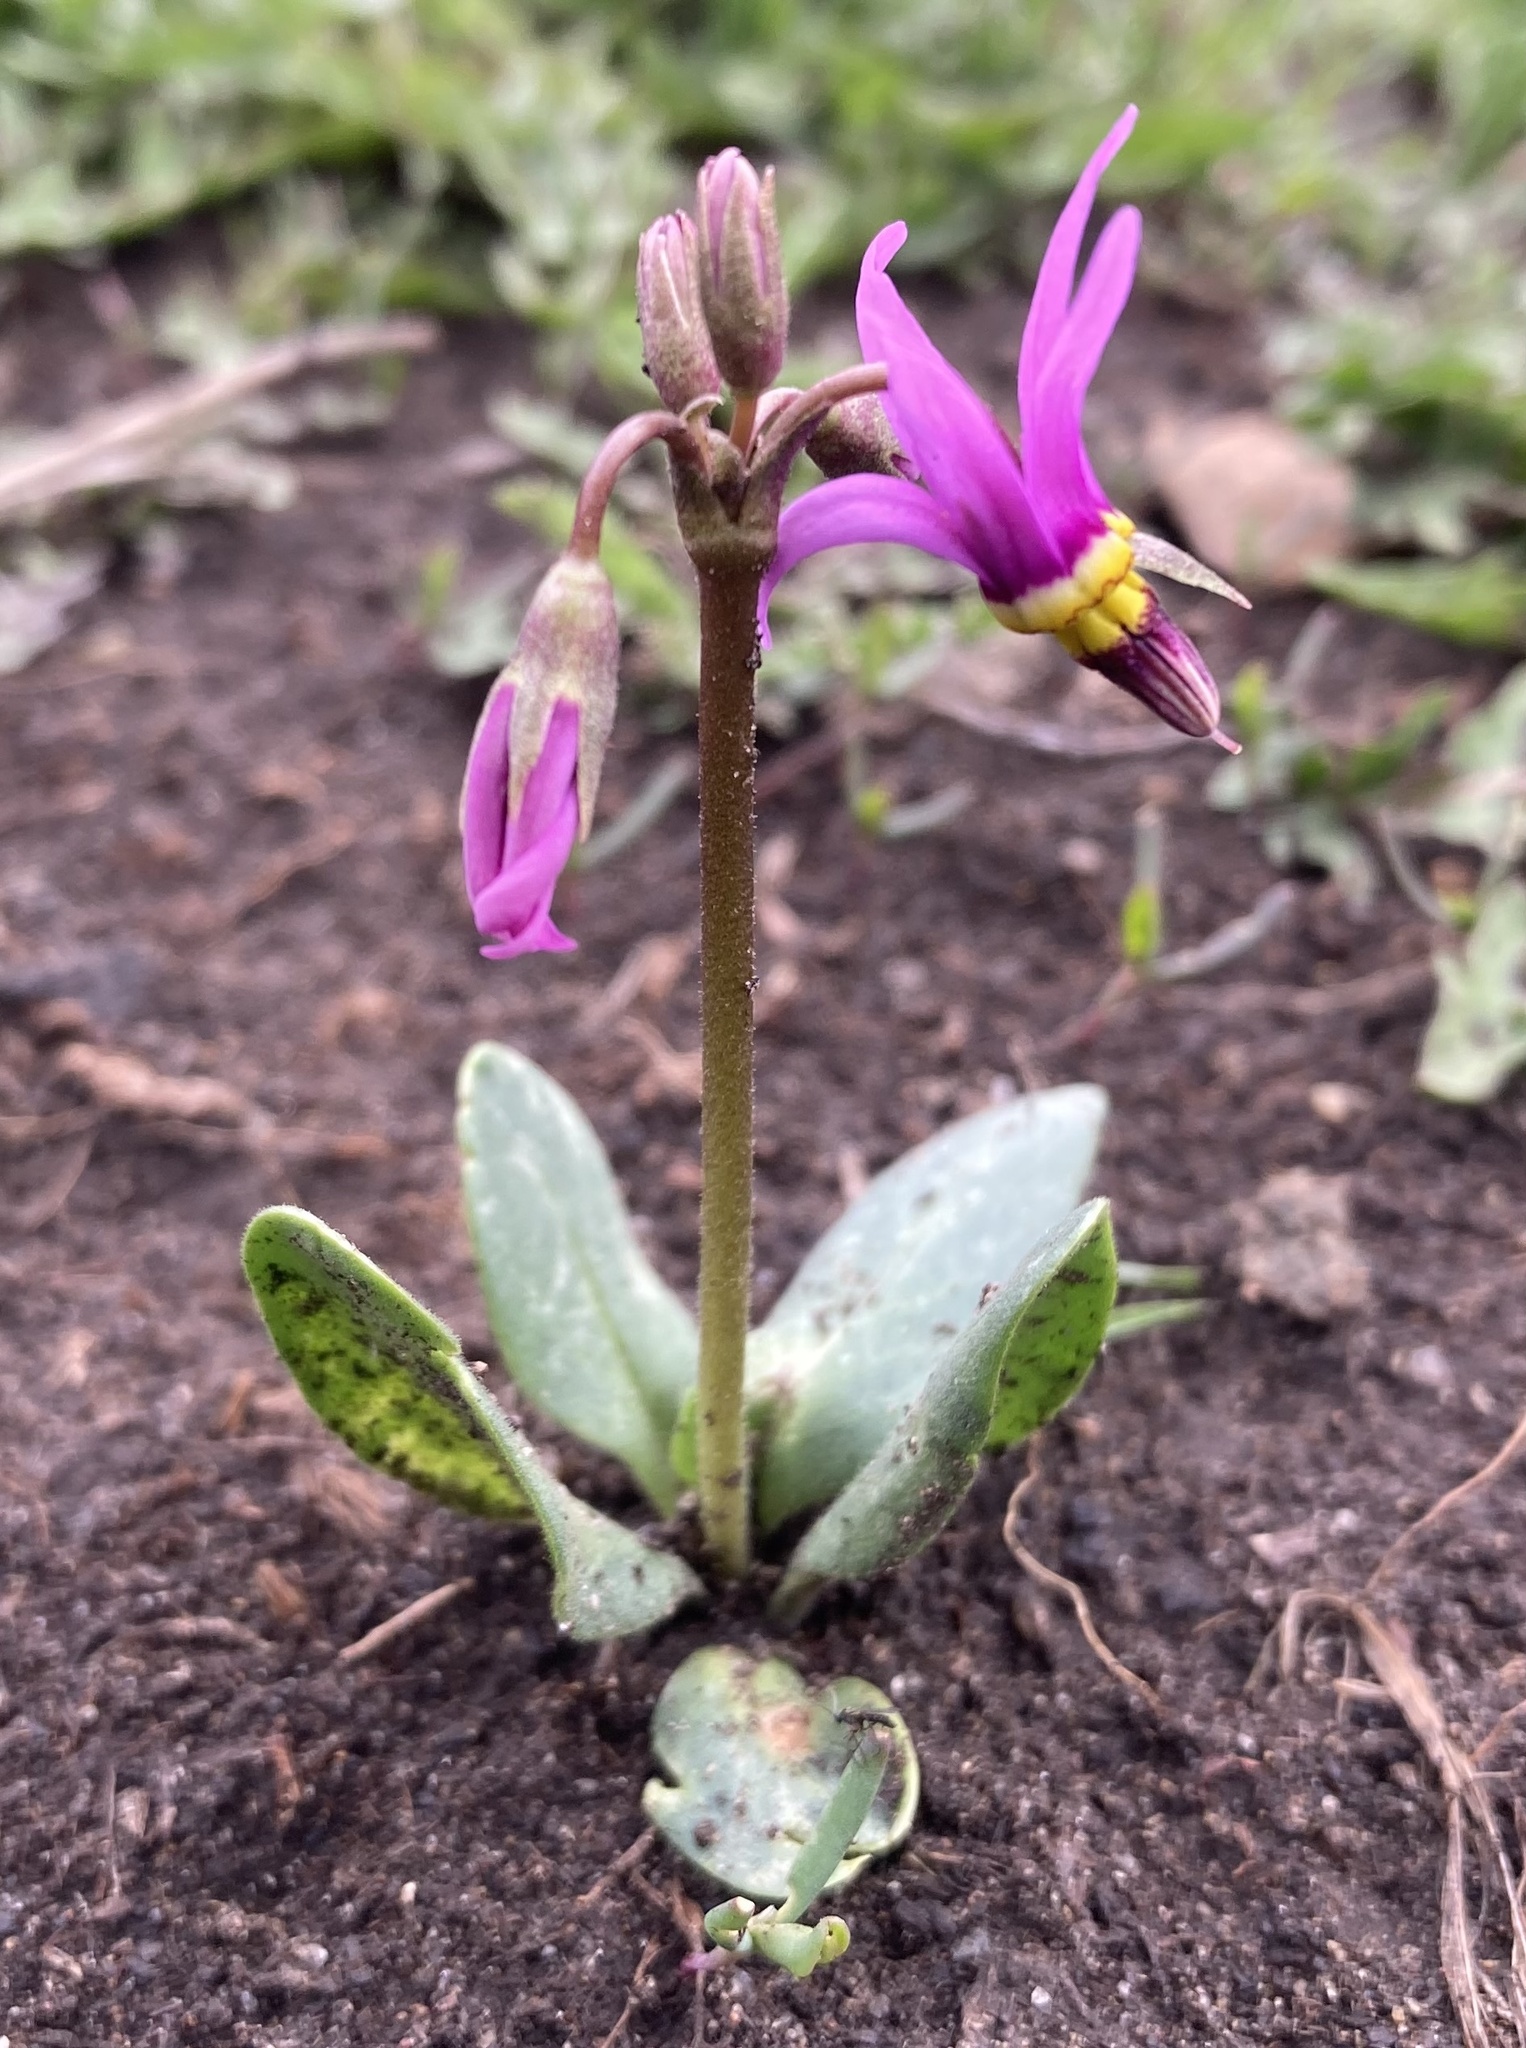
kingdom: Plantae
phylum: Tracheophyta
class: Magnoliopsida
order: Ericales
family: Primulaceae
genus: Dodecatheon
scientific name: Dodecatheon conjugens
